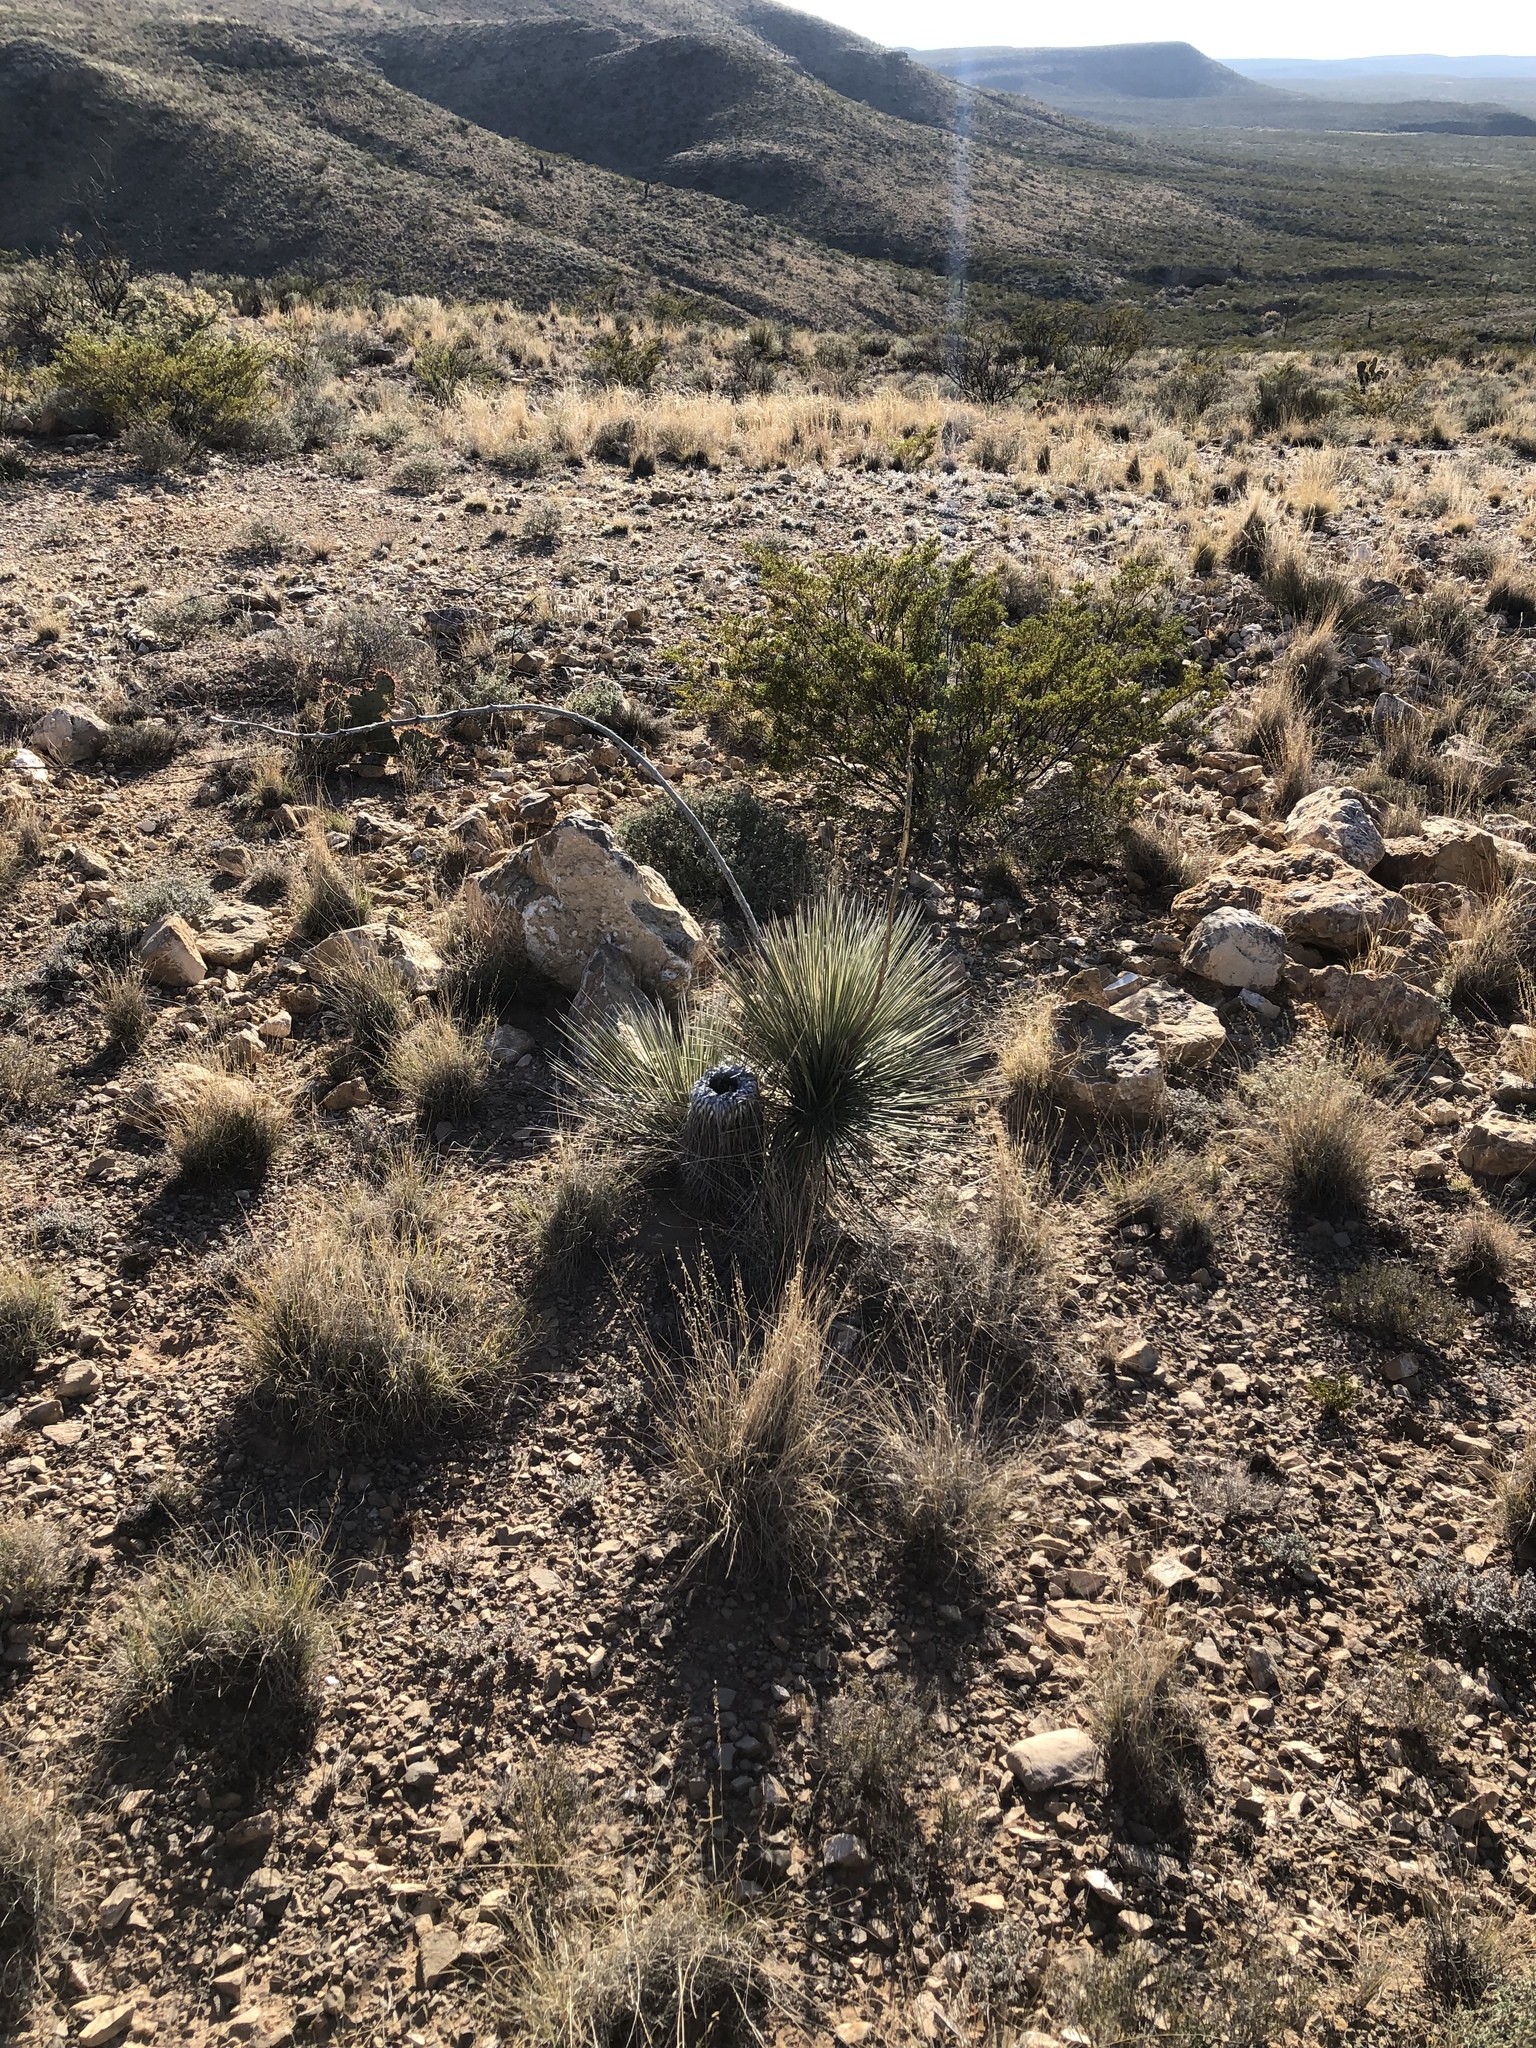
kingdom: Plantae
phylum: Tracheophyta
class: Liliopsida
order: Asparagales
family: Asparagaceae
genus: Yucca
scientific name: Yucca elata
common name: Palmella
